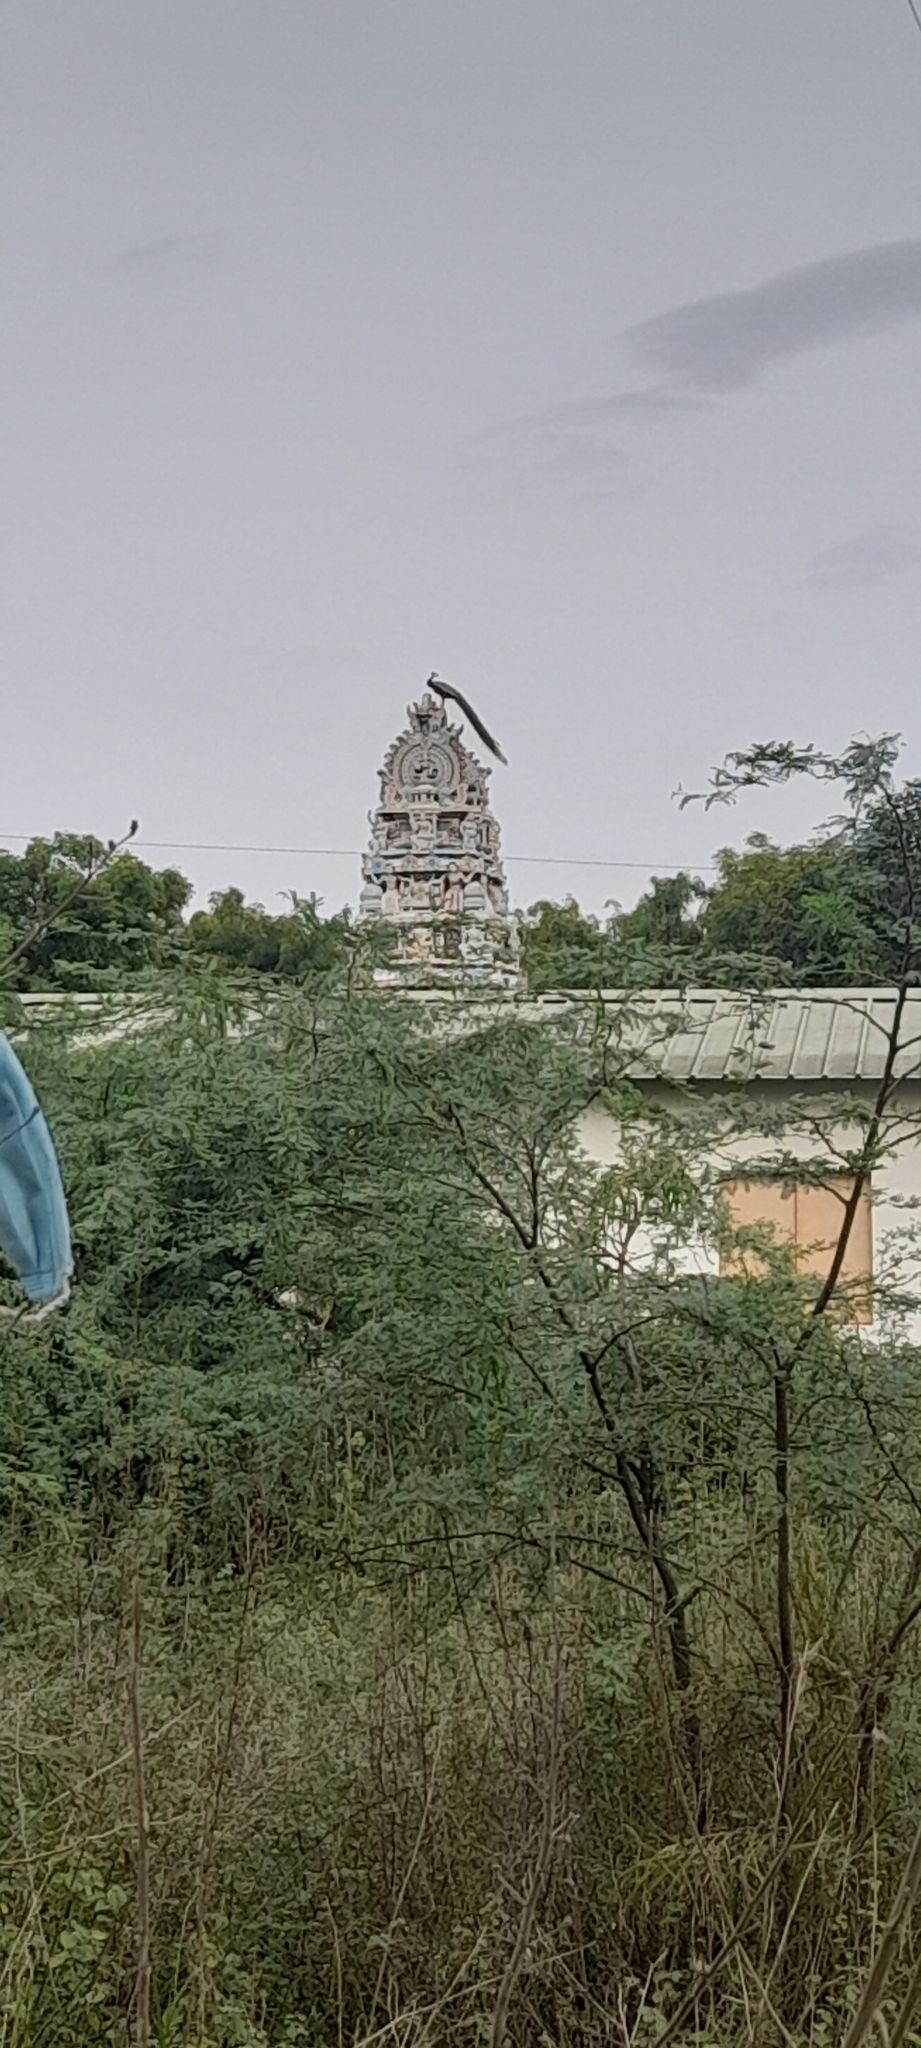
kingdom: Animalia
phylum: Chordata
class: Aves
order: Galliformes
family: Phasianidae
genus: Pavo
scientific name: Pavo cristatus
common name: Indian peafowl
